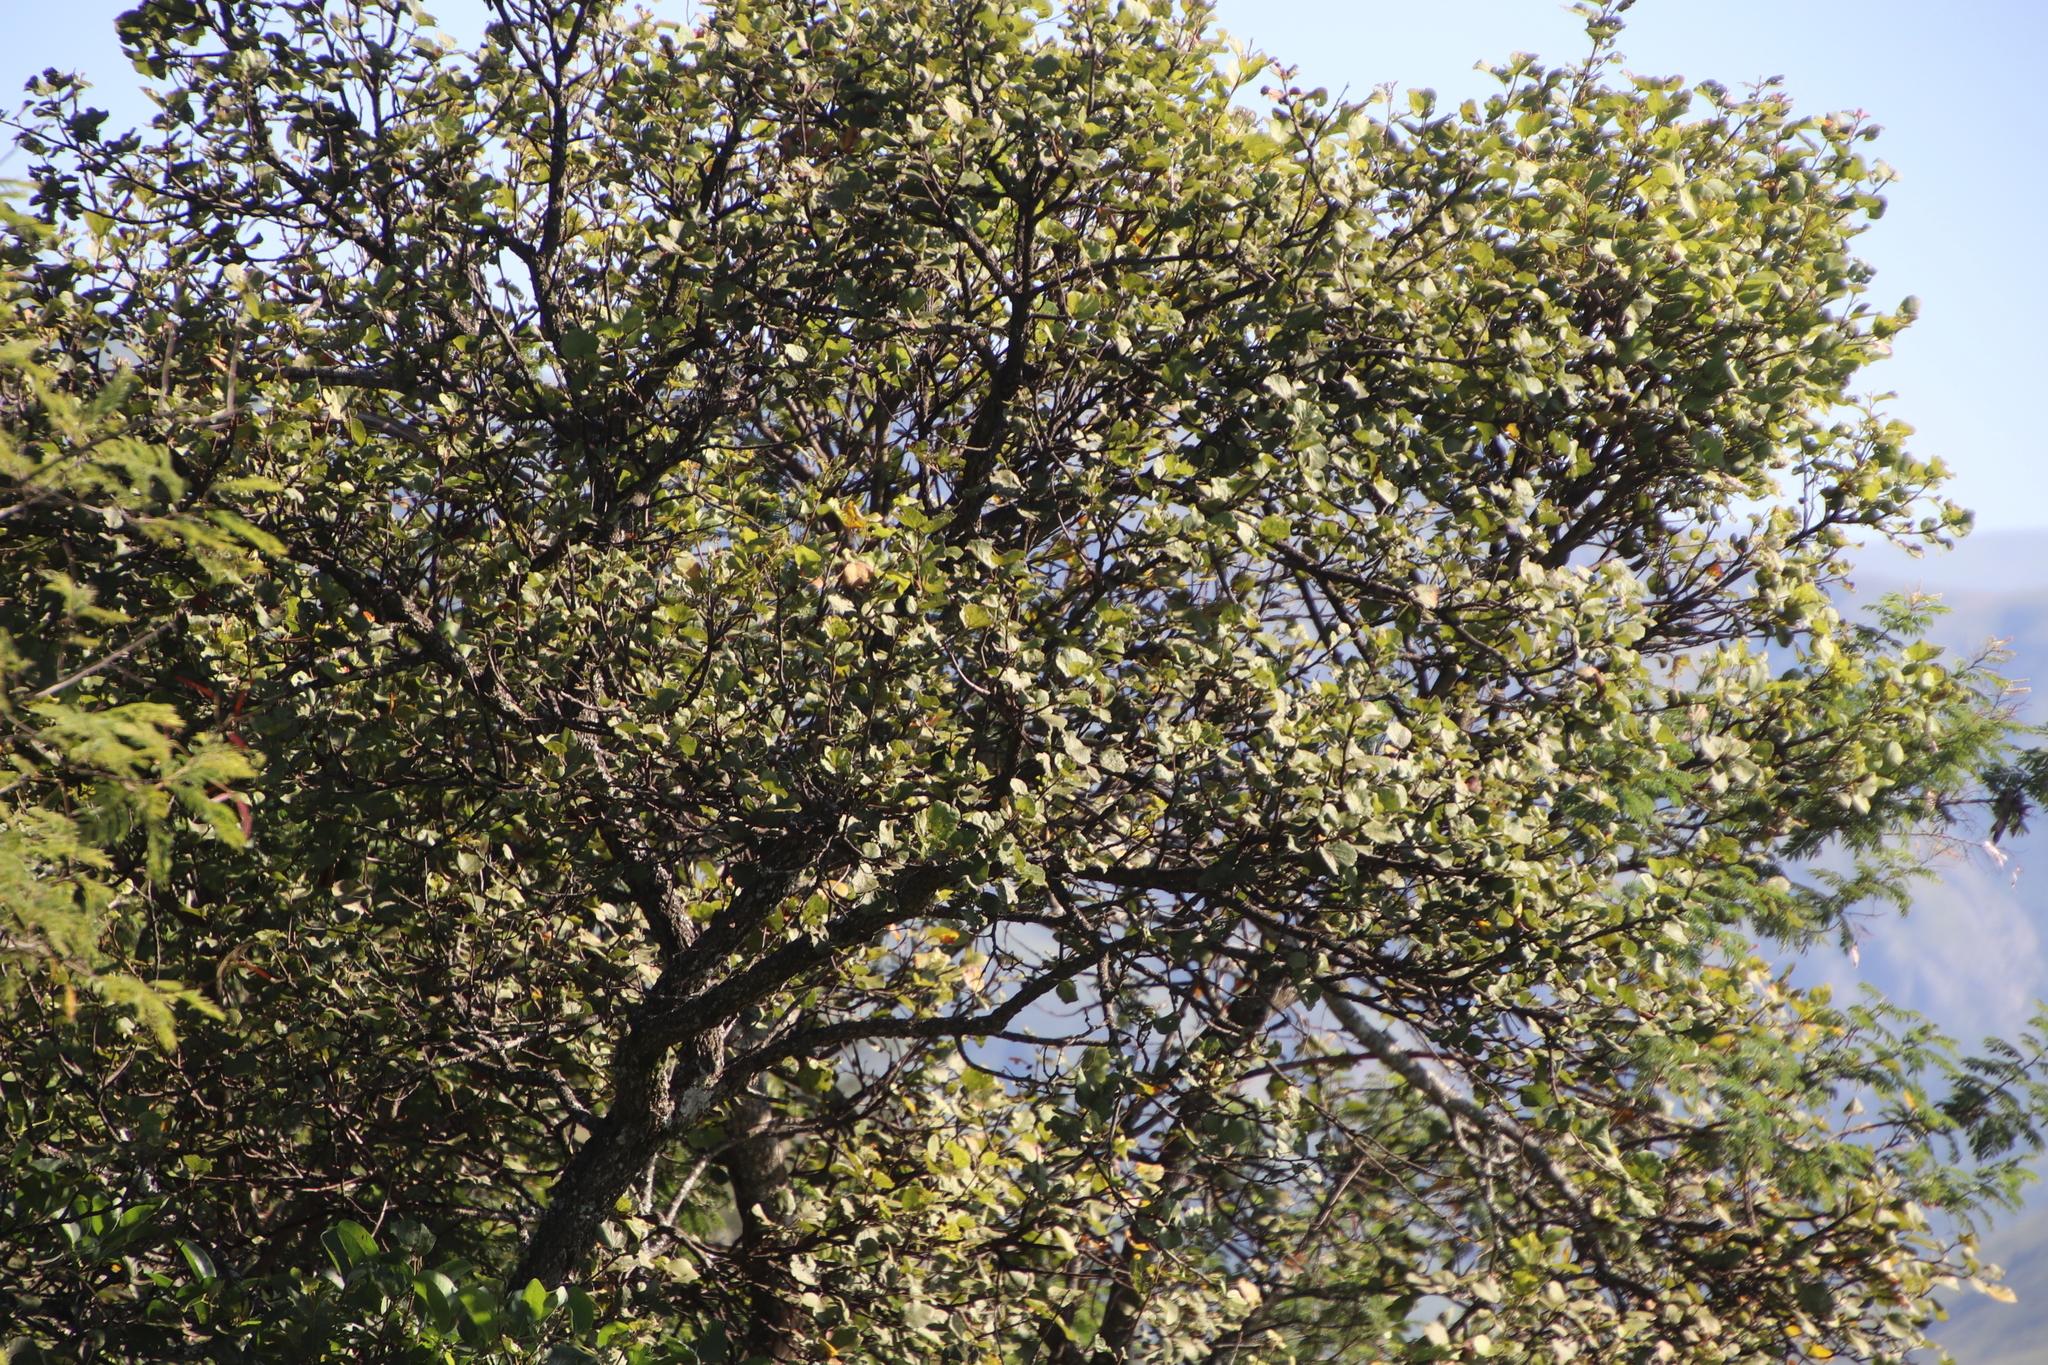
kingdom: Plantae
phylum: Tracheophyta
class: Magnoliopsida
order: Malvales
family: Malvaceae
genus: Dombeya
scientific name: Dombeya rotundifolia
